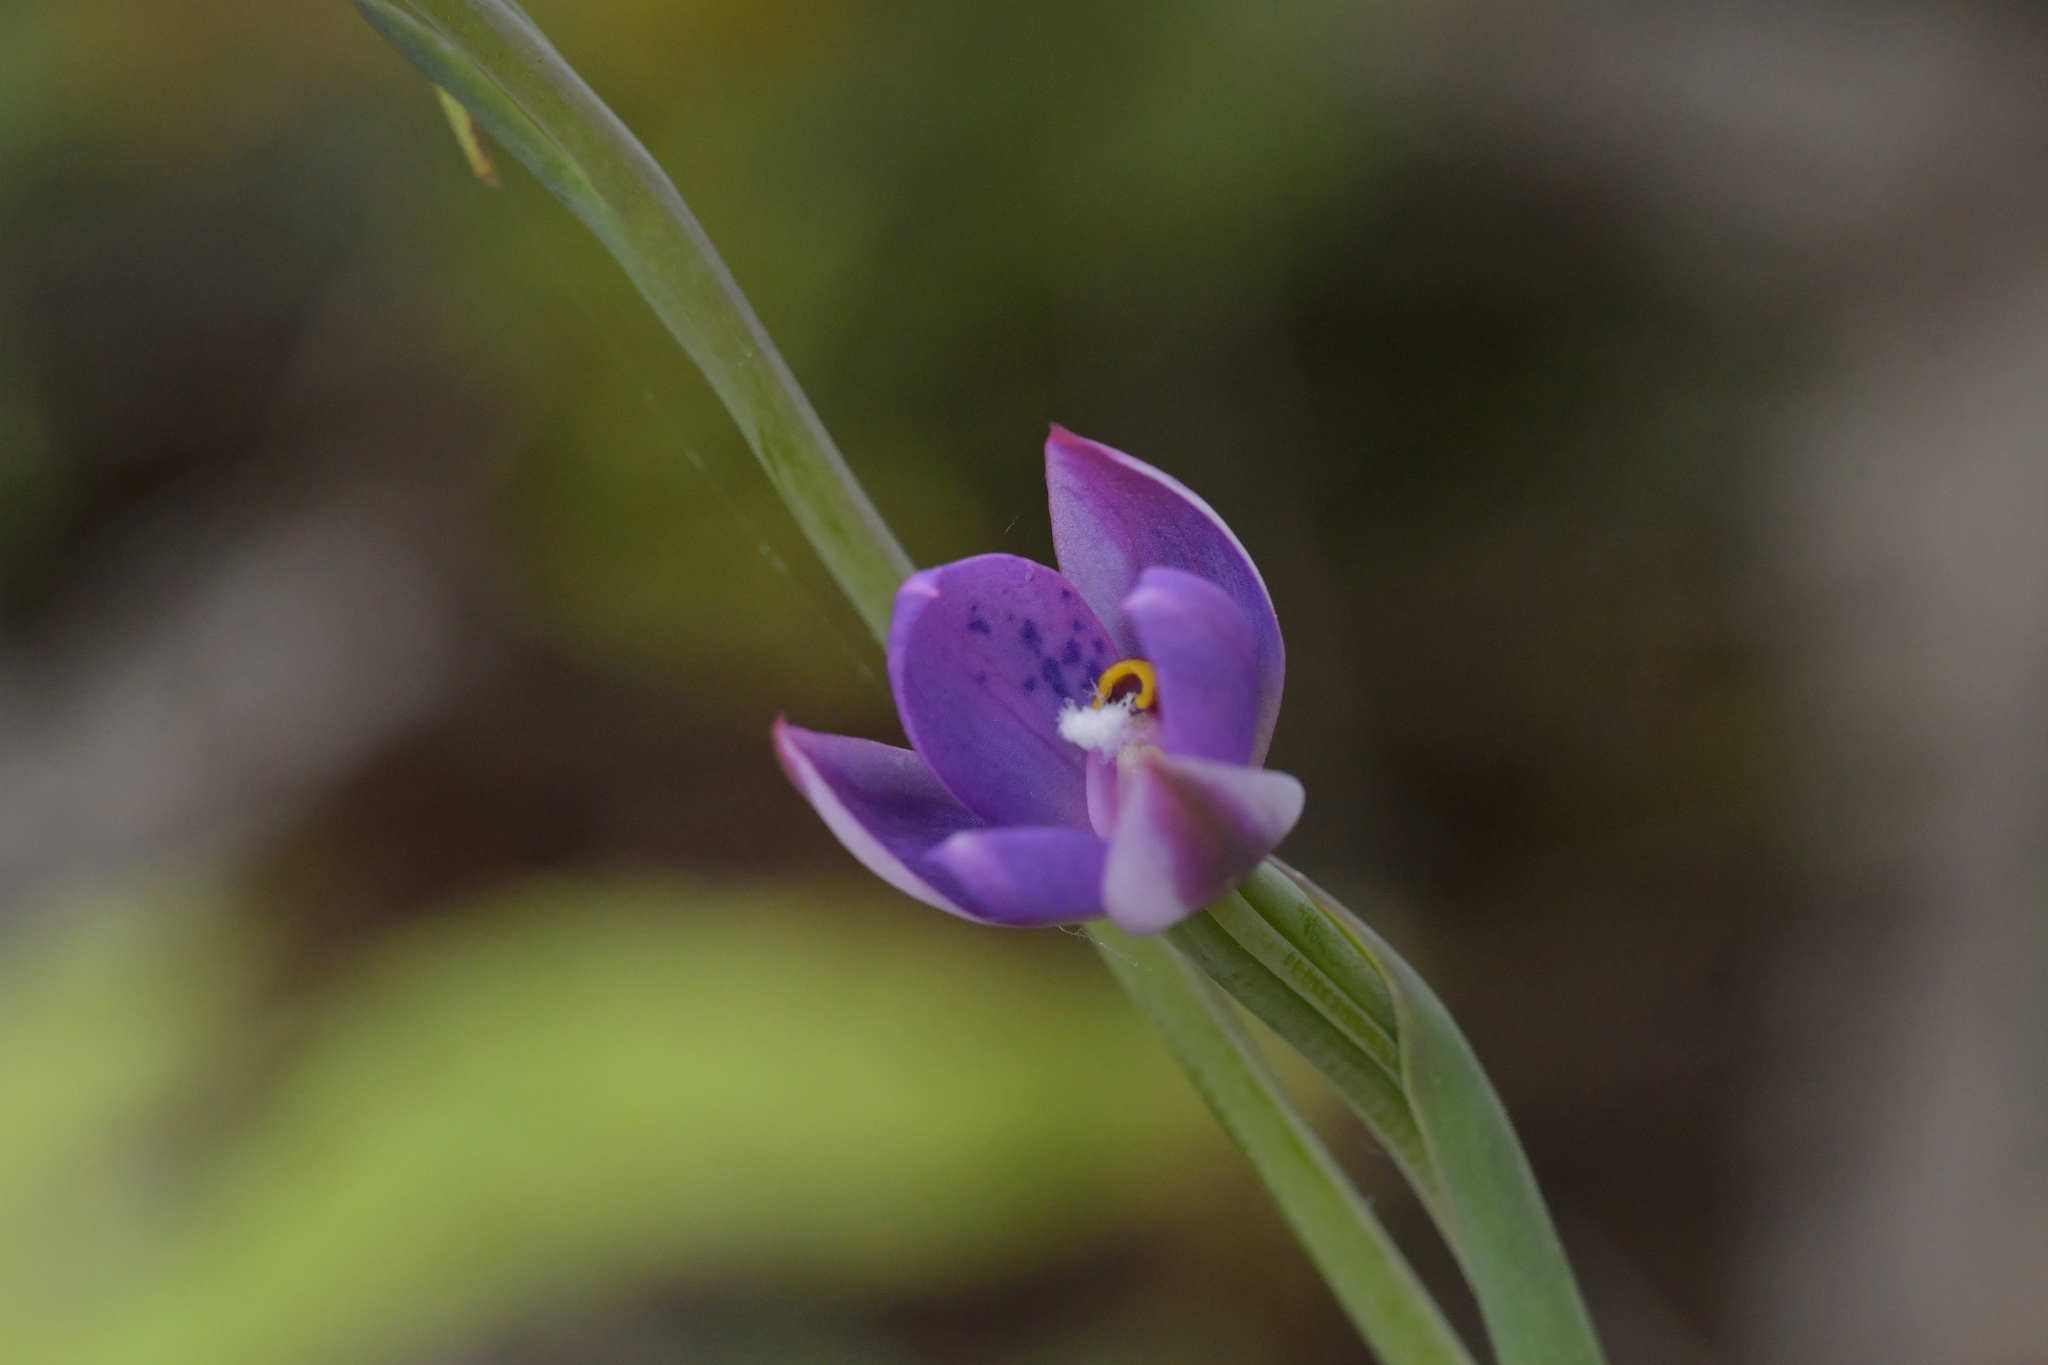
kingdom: Plantae
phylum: Tracheophyta
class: Liliopsida
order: Asparagales
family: Orchidaceae
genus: Thelymitra
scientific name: Thelymitra nervosa
